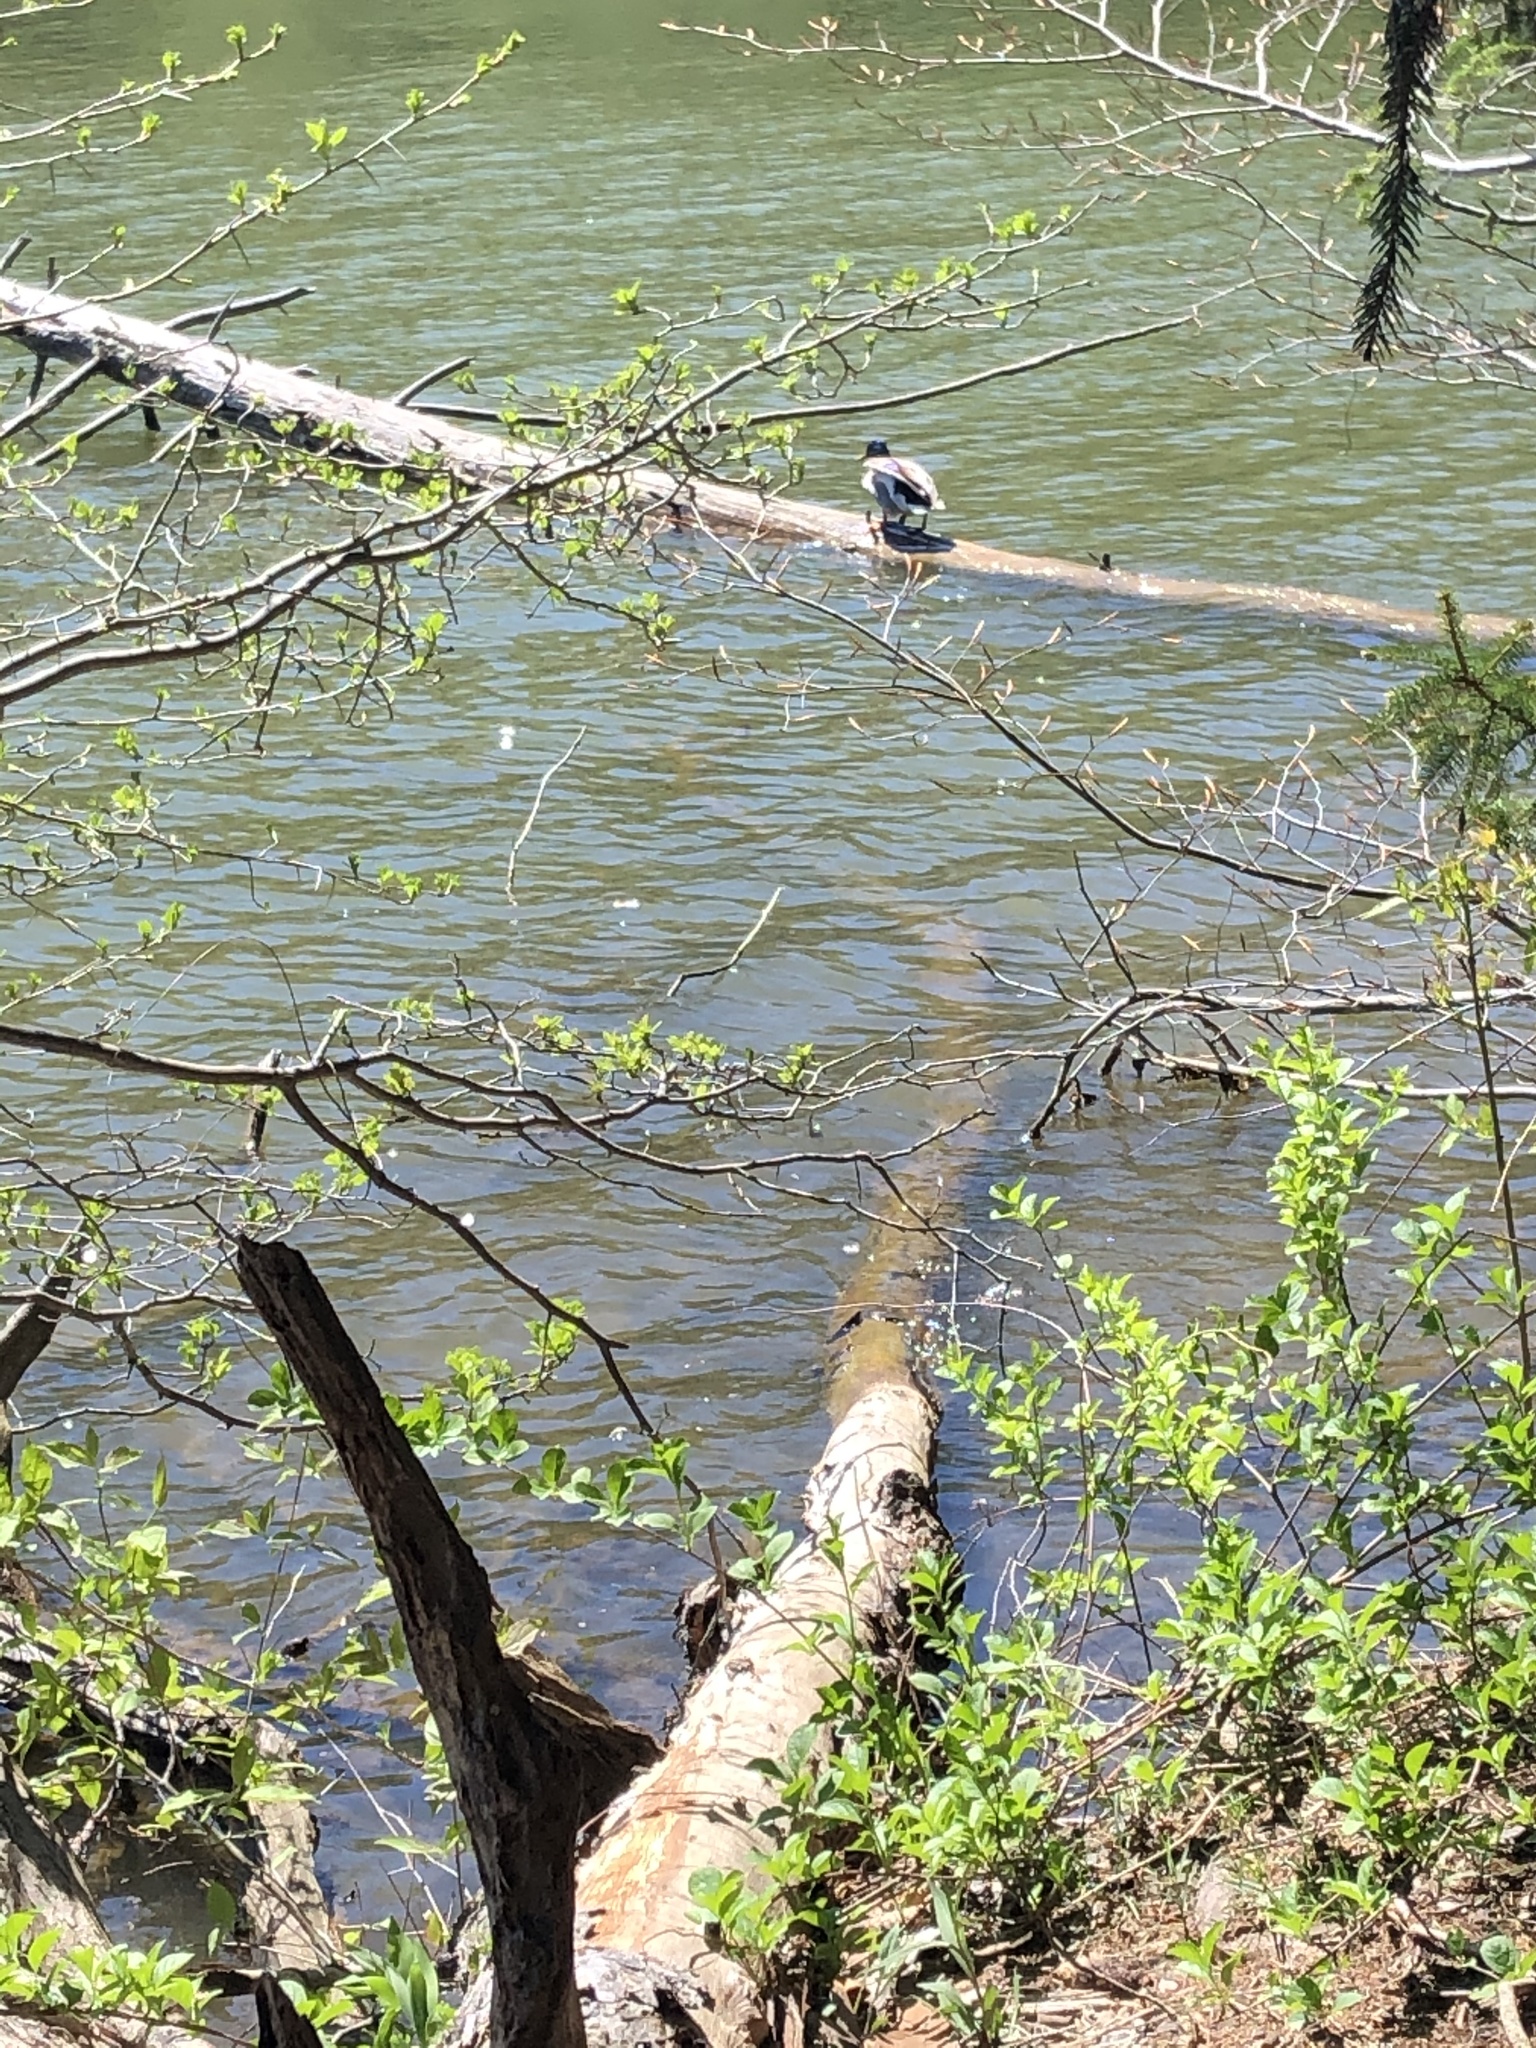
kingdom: Animalia
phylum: Chordata
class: Aves
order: Anseriformes
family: Anatidae
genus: Anas
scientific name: Anas platyrhynchos
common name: Mallard
